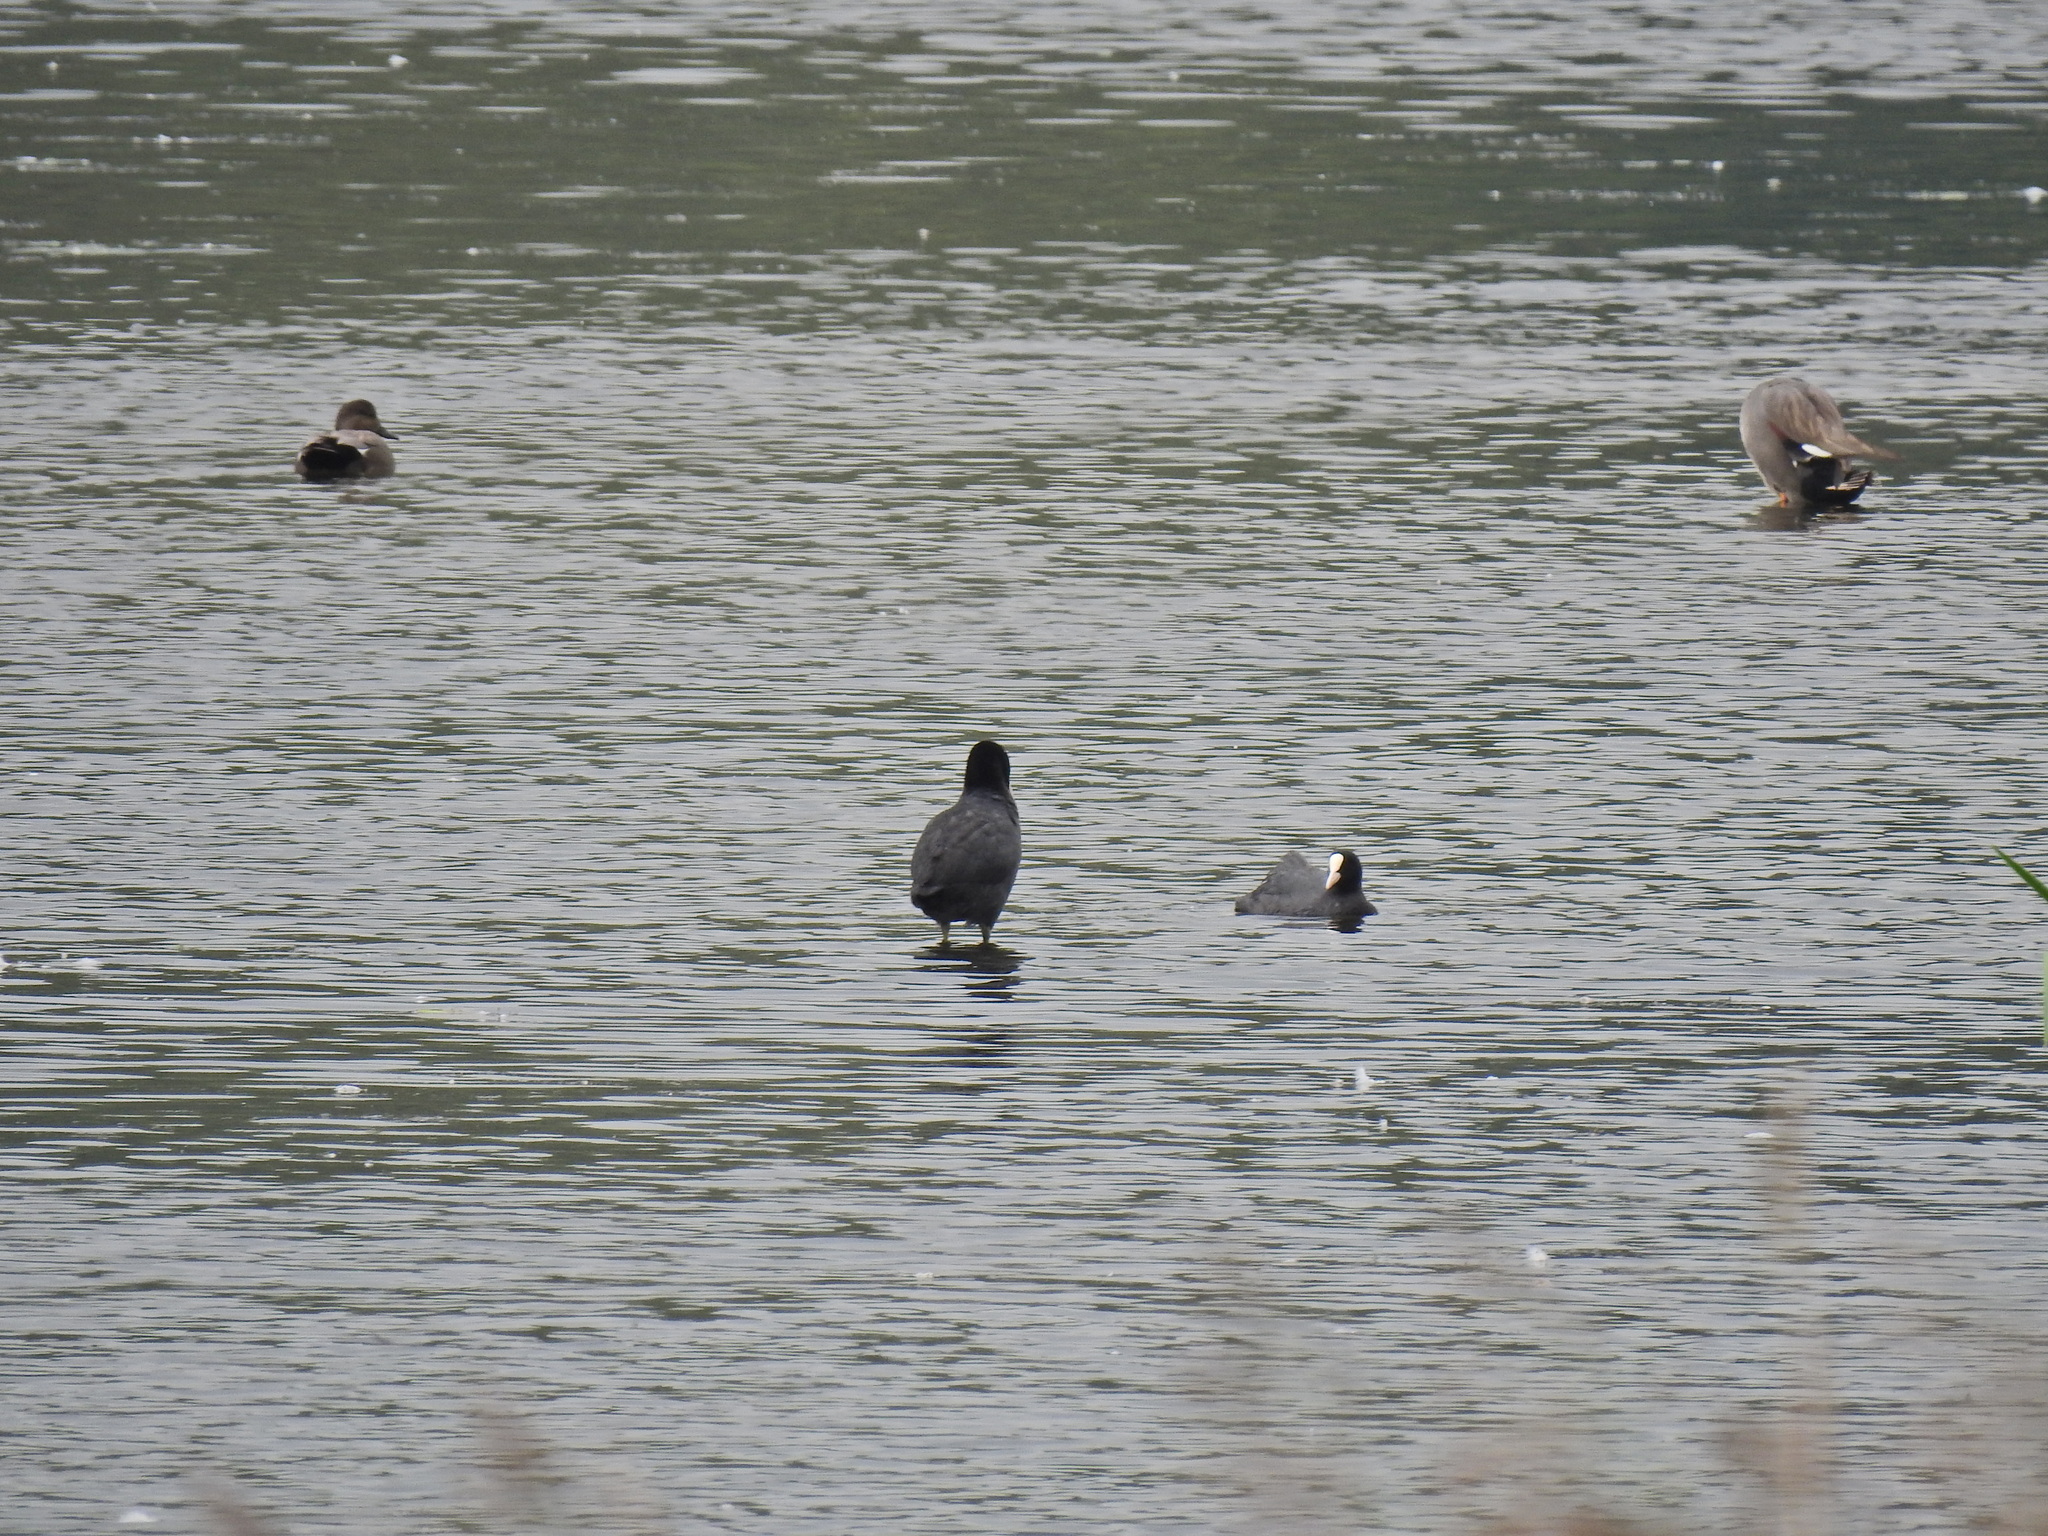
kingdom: Animalia
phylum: Chordata
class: Aves
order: Gruiformes
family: Rallidae
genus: Fulica
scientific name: Fulica atra
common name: Eurasian coot
